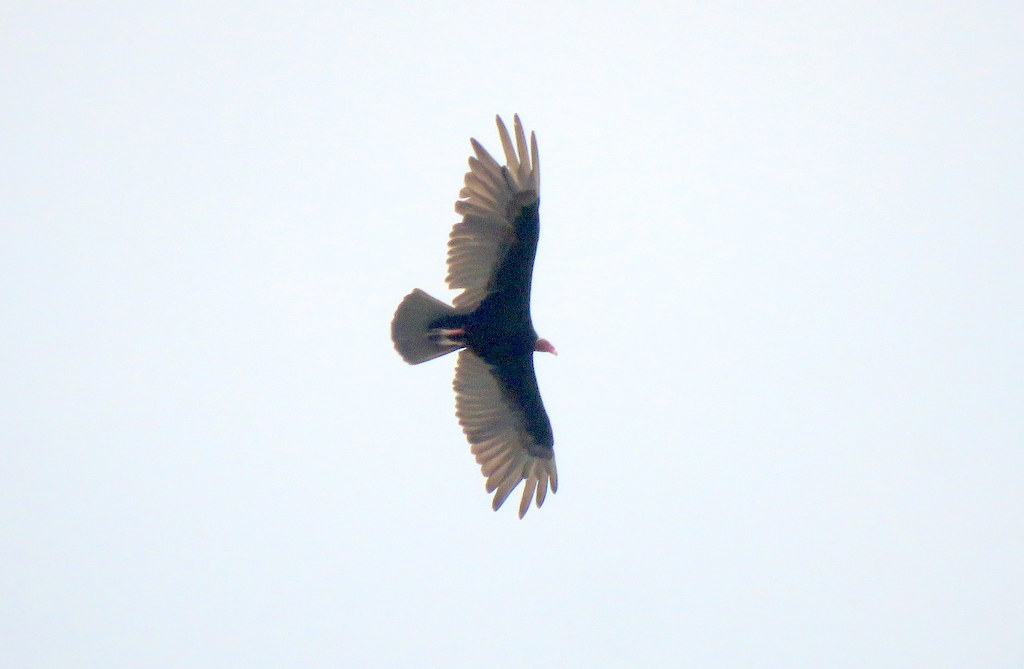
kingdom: Animalia
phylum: Chordata
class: Aves
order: Accipitriformes
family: Cathartidae
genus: Cathartes
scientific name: Cathartes aura
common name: Turkey vulture
